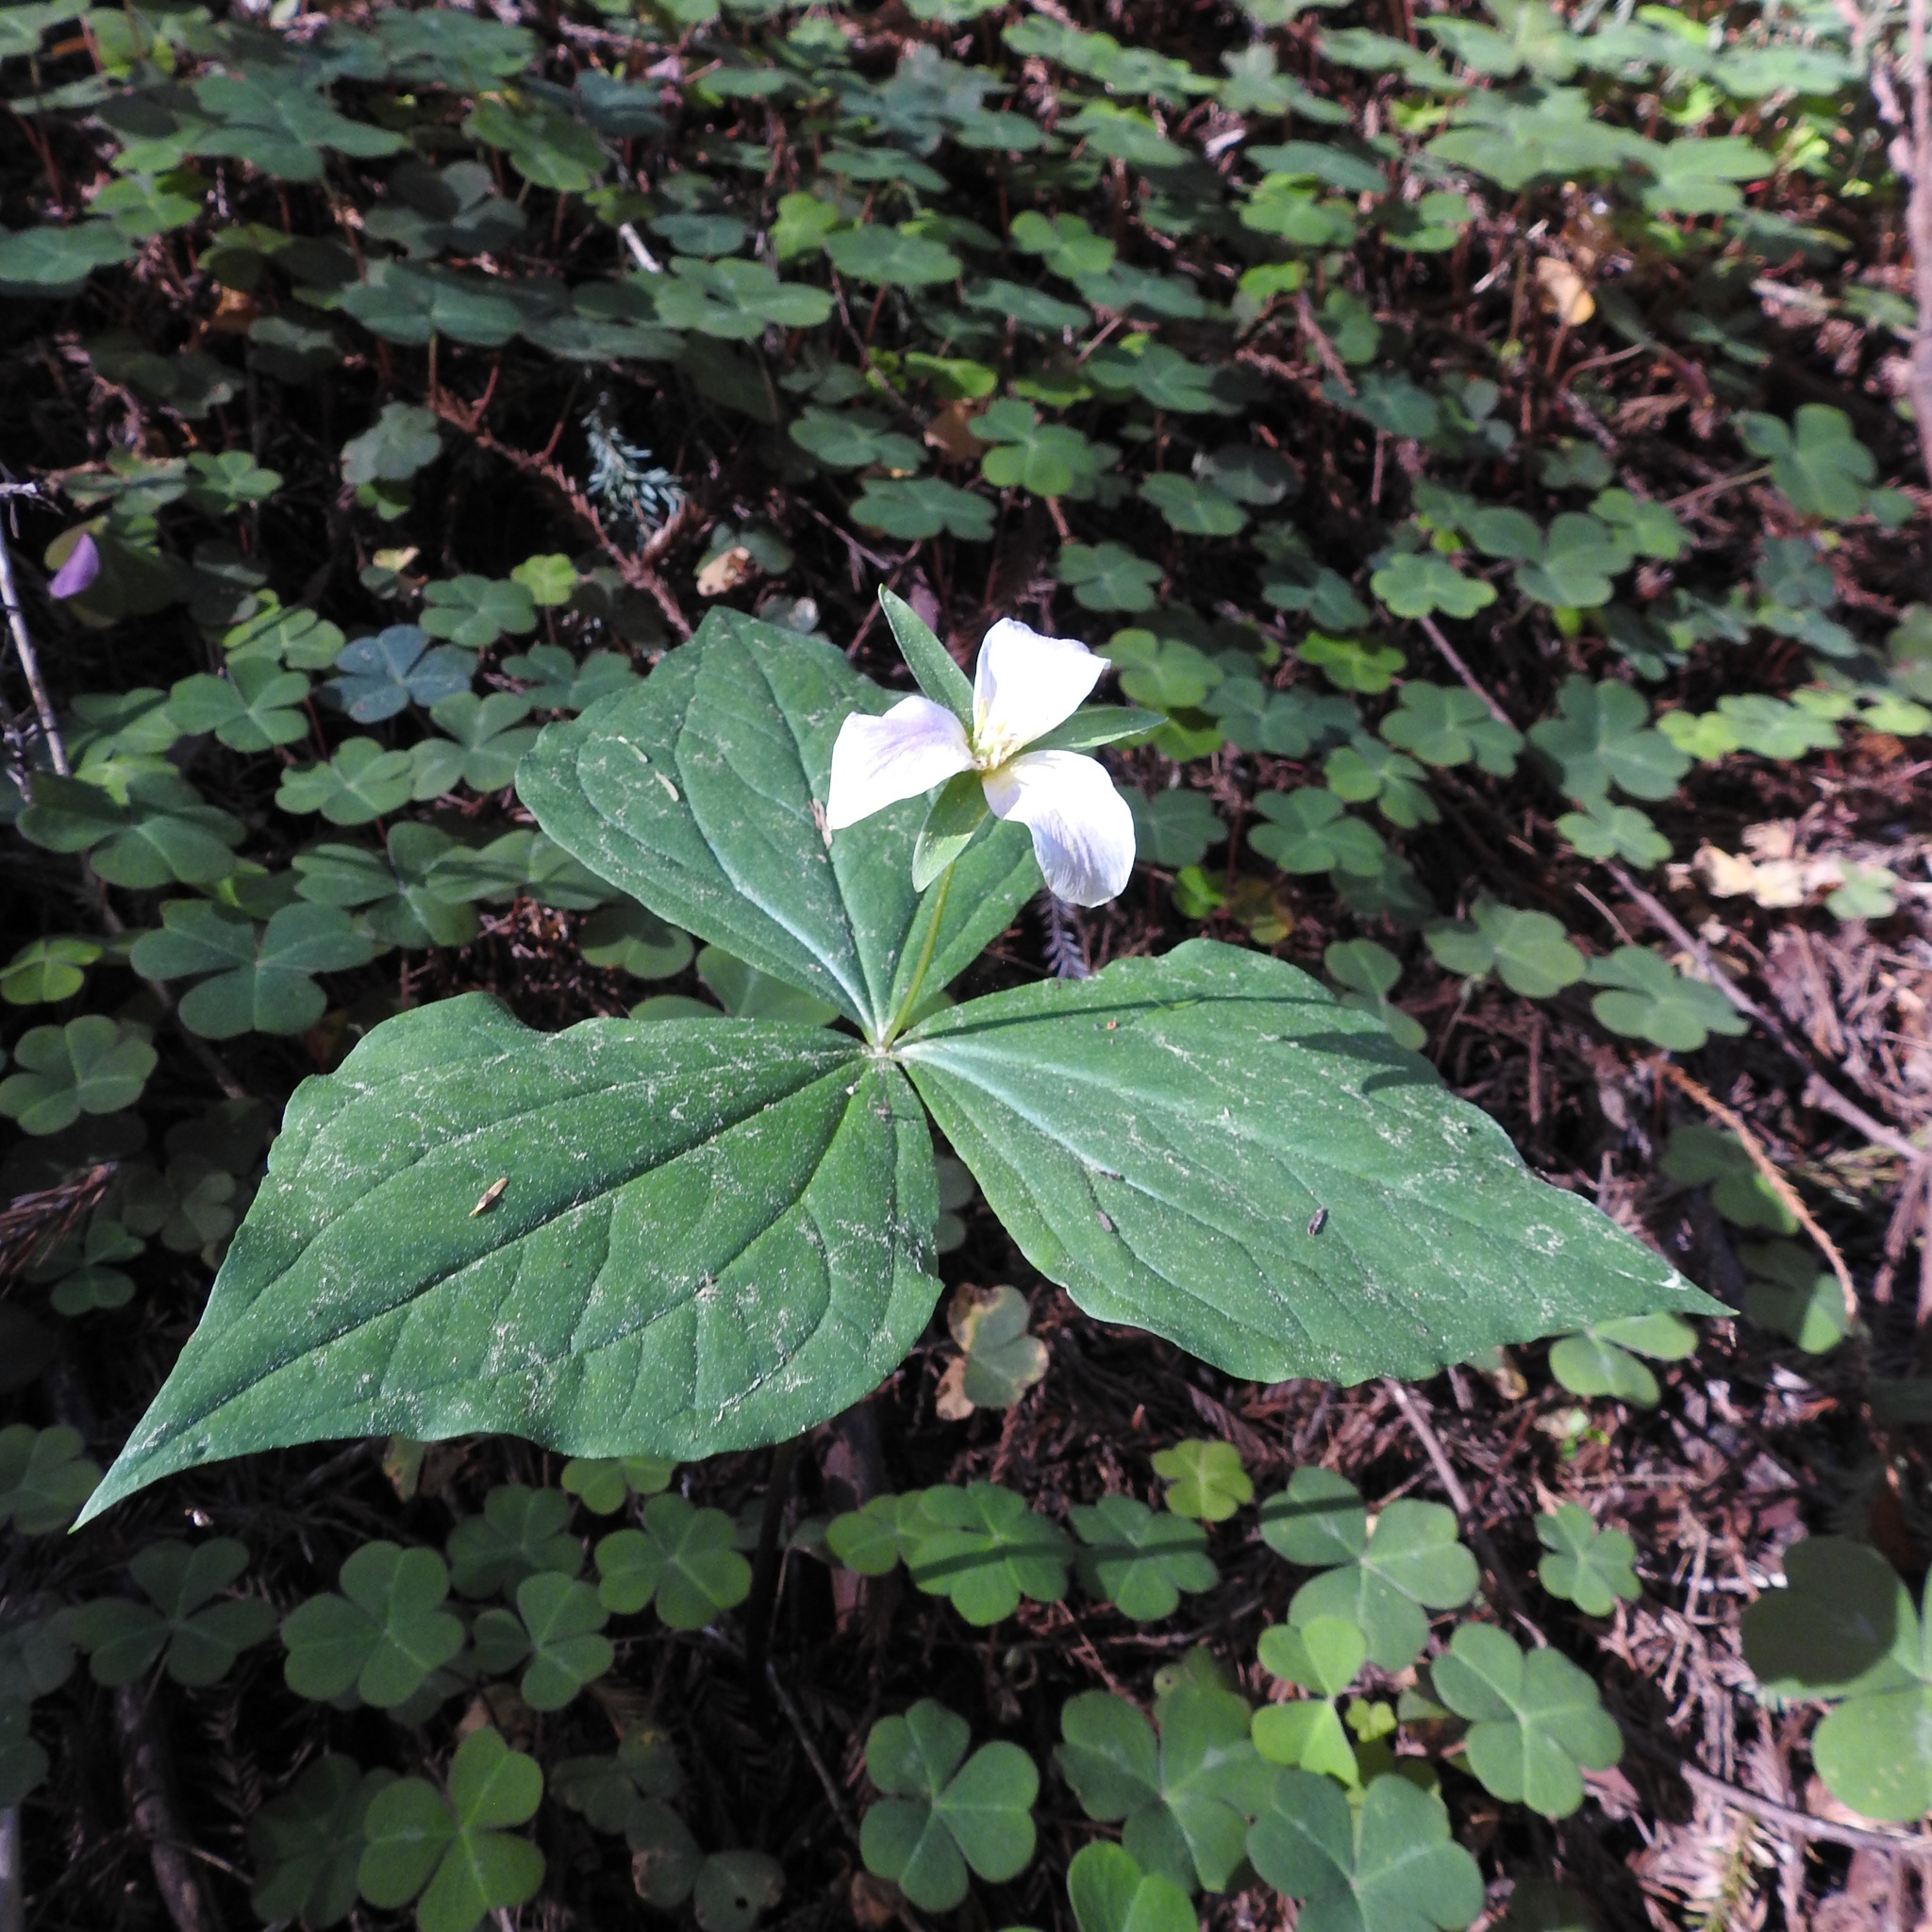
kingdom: Plantae
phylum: Tracheophyta
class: Liliopsida
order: Liliales
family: Melanthiaceae
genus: Trillium
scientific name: Trillium ovatum
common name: Pacific trillium
